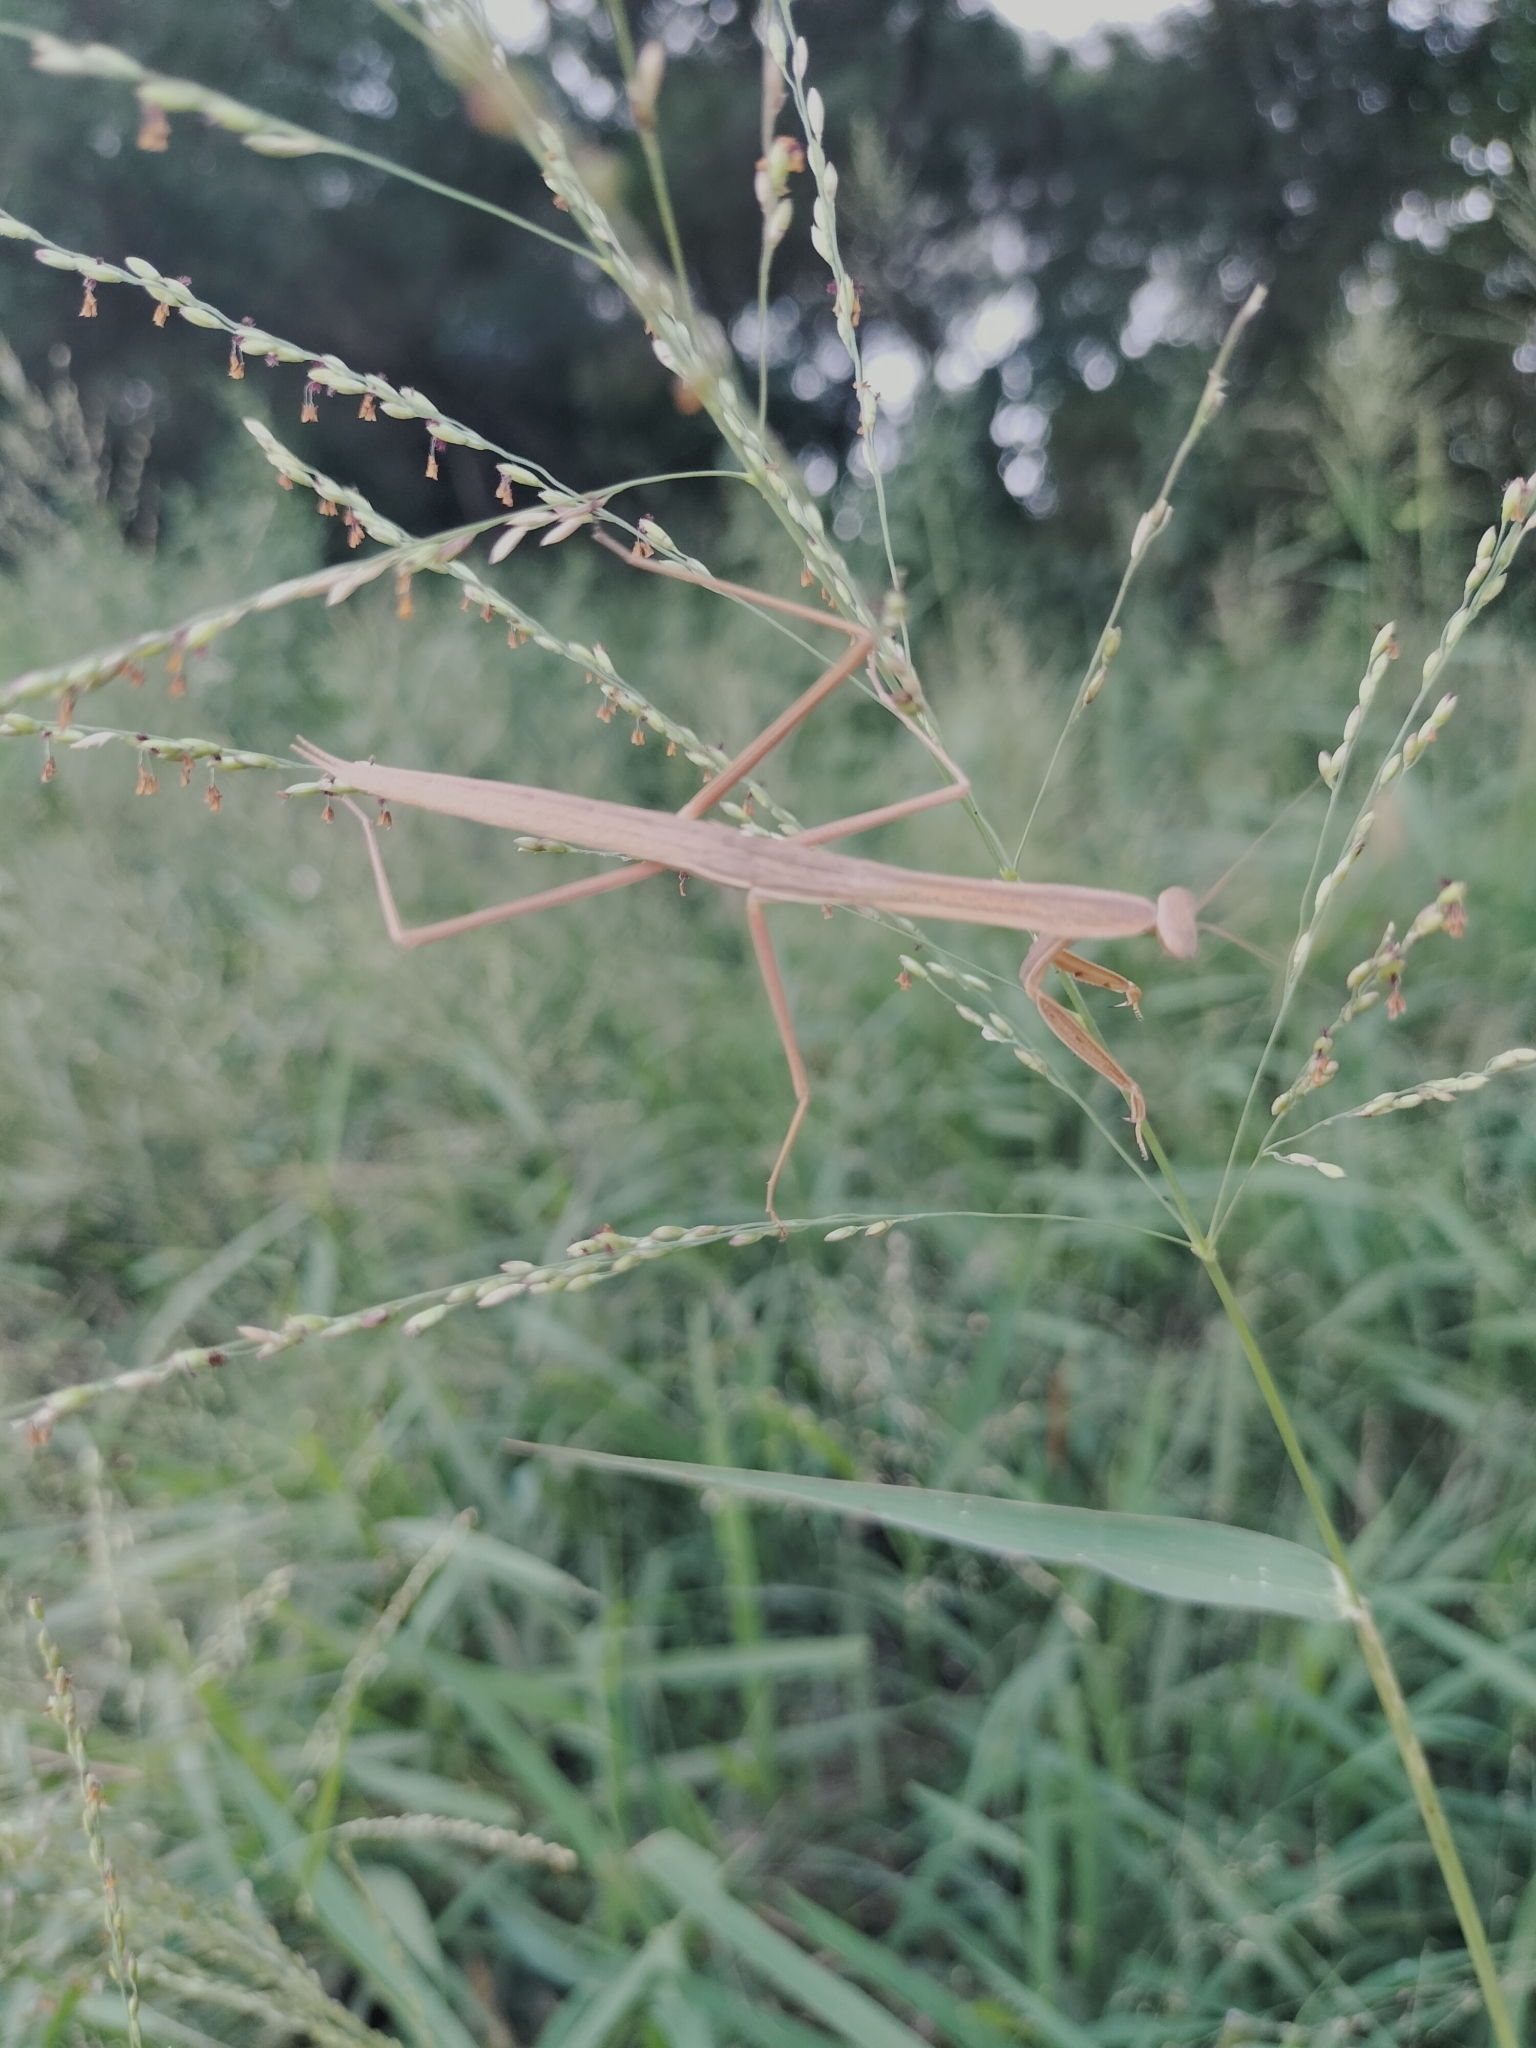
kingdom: Animalia
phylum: Arthropoda
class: Insecta
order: Mantodea
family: Mantidae
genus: Tenodera
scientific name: Tenodera aridifolia
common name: Mantis
